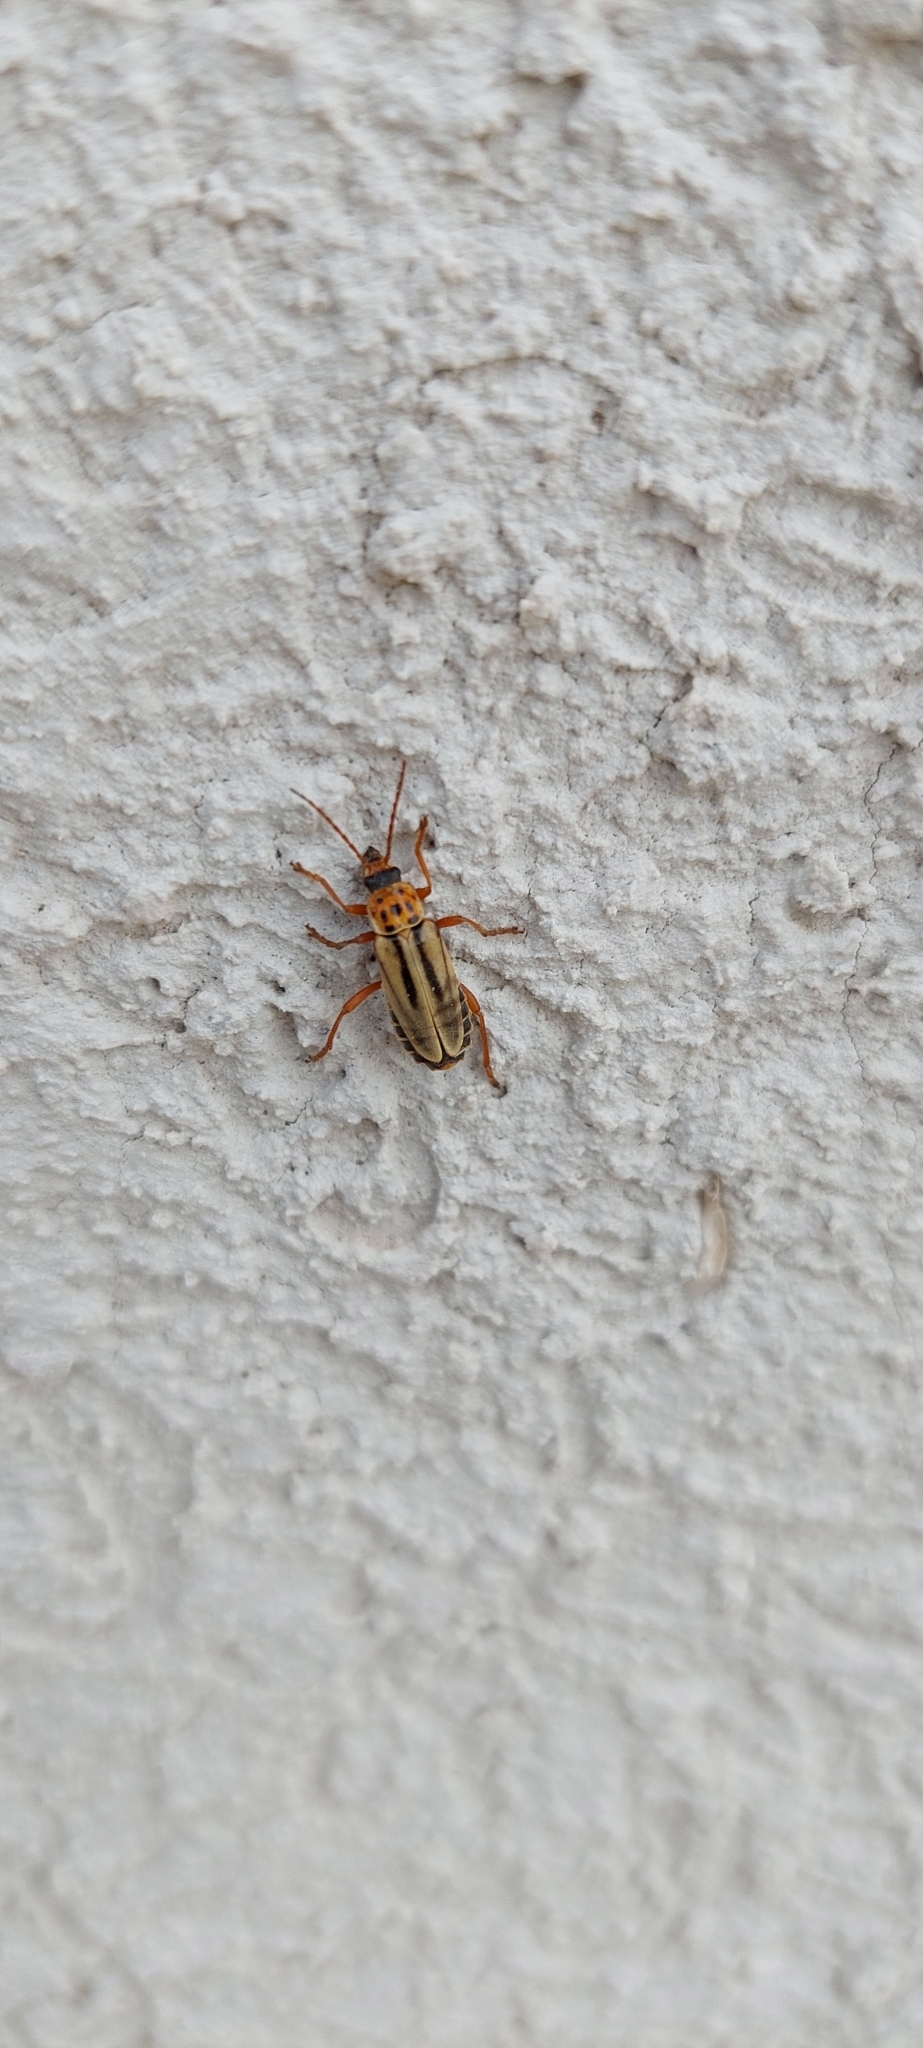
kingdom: Animalia
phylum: Arthropoda
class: Insecta
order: Coleoptera
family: Cantharidae
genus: Chauliognathus
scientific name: Chauliognathus
